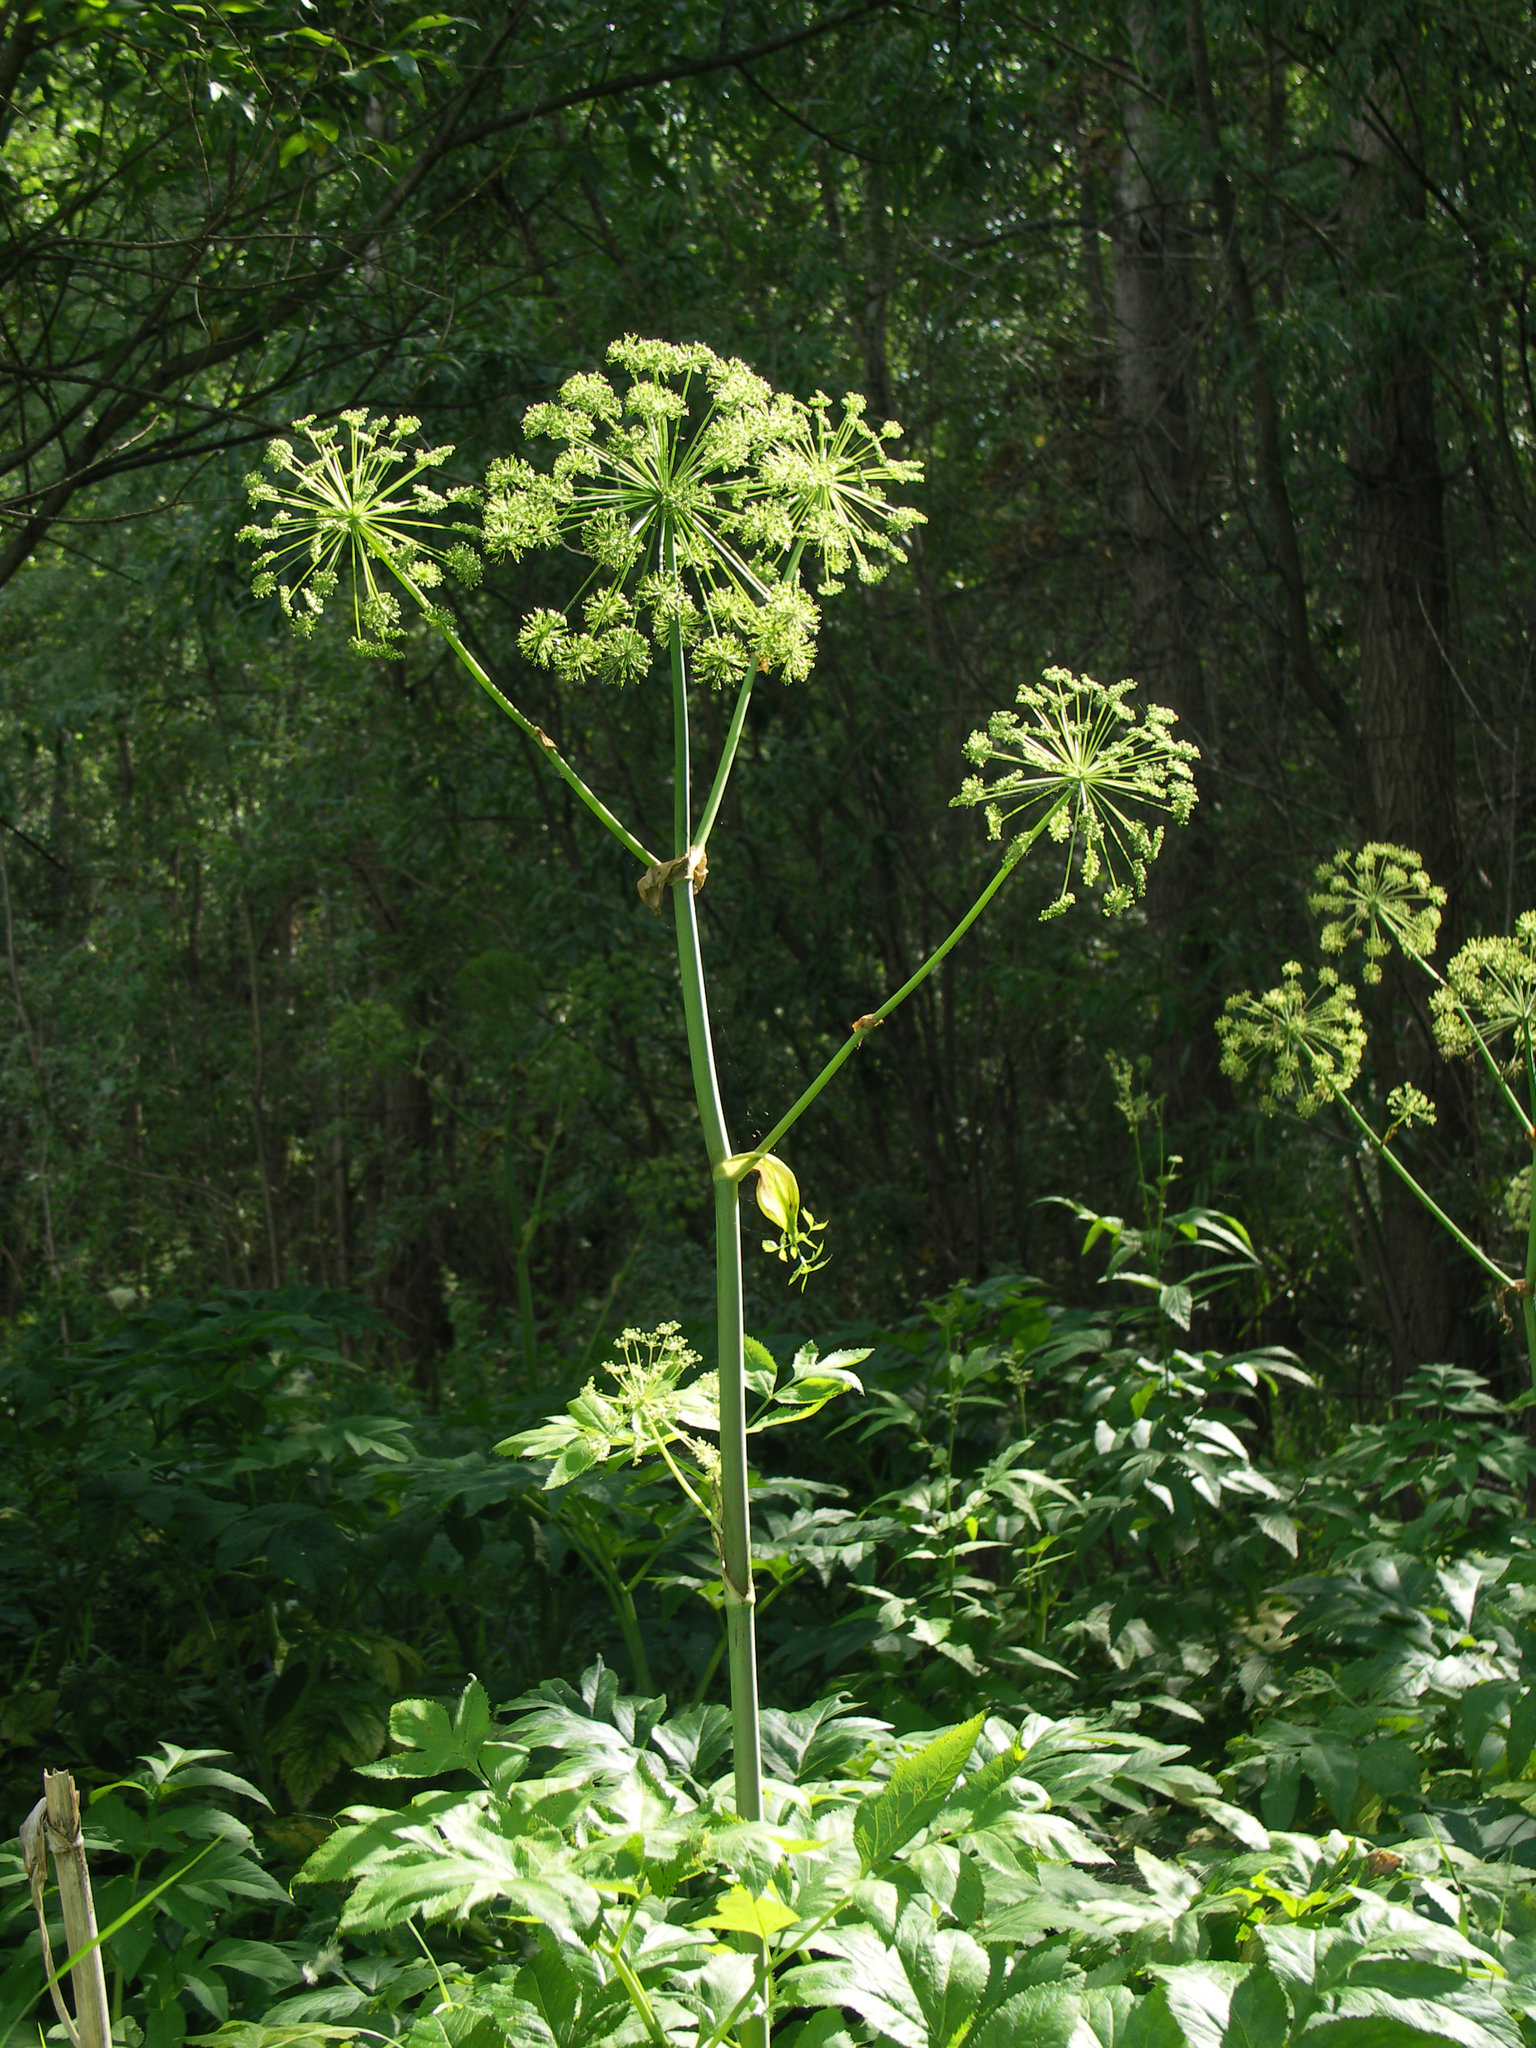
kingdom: Plantae
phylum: Tracheophyta
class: Magnoliopsida
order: Apiales
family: Apiaceae
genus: Angelica
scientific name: Angelica decurrens
